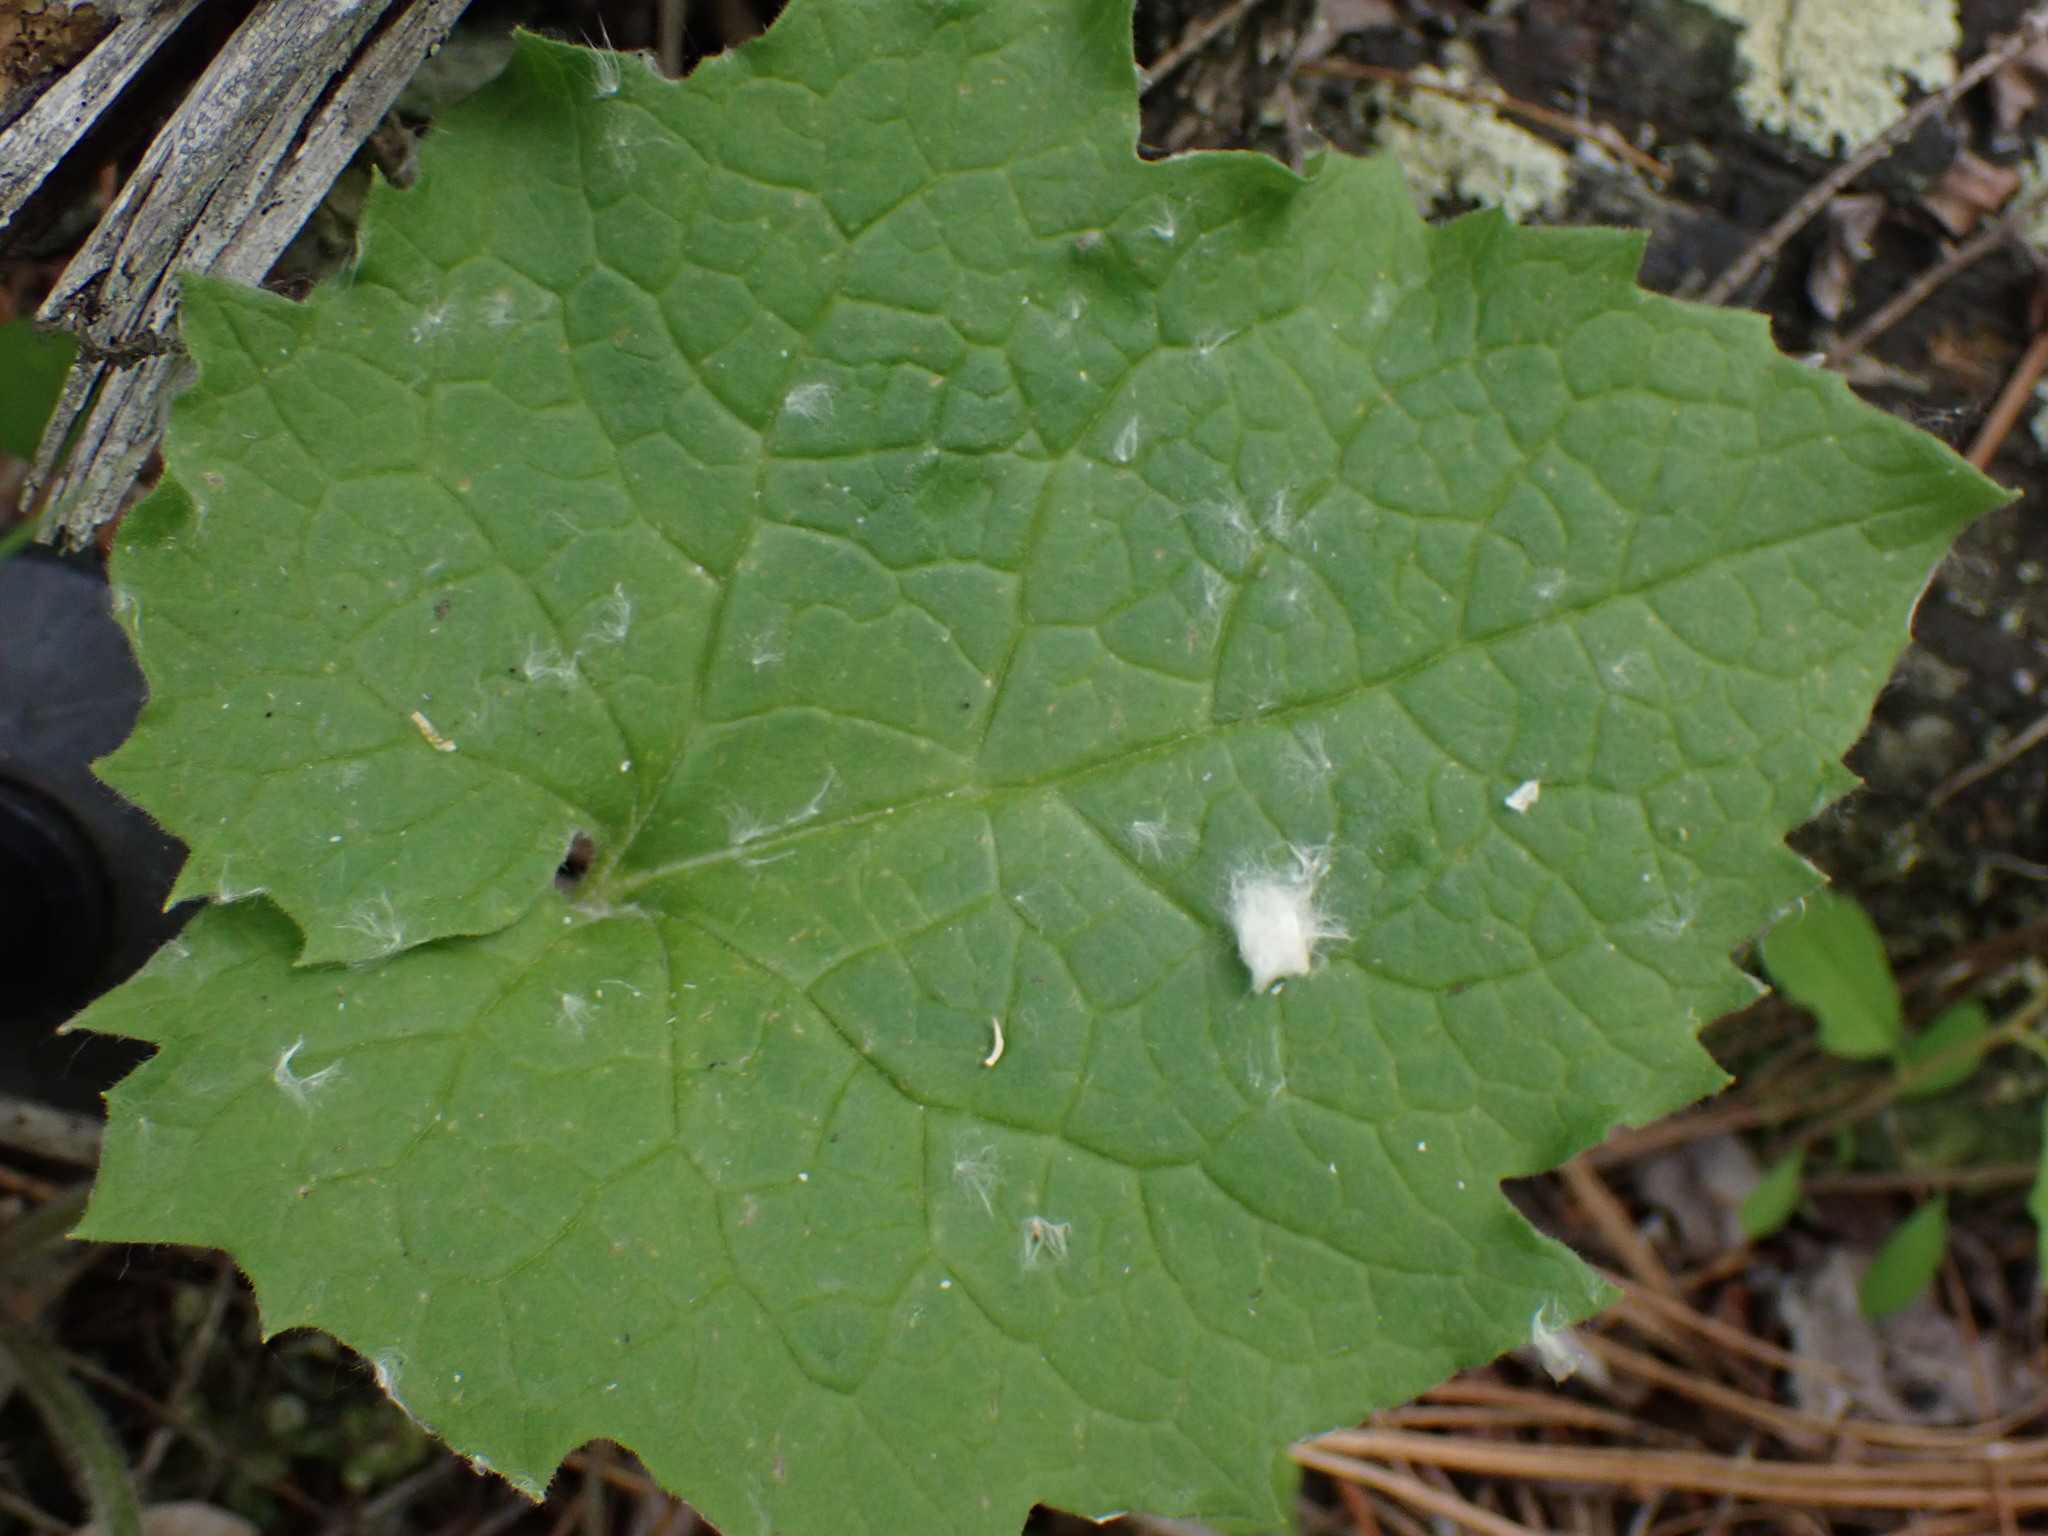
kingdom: Plantae
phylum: Tracheophyta
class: Magnoliopsida
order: Asterales
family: Asteraceae
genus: Arnica
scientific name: Arnica cordifolia
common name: Heart-leaf arnica
